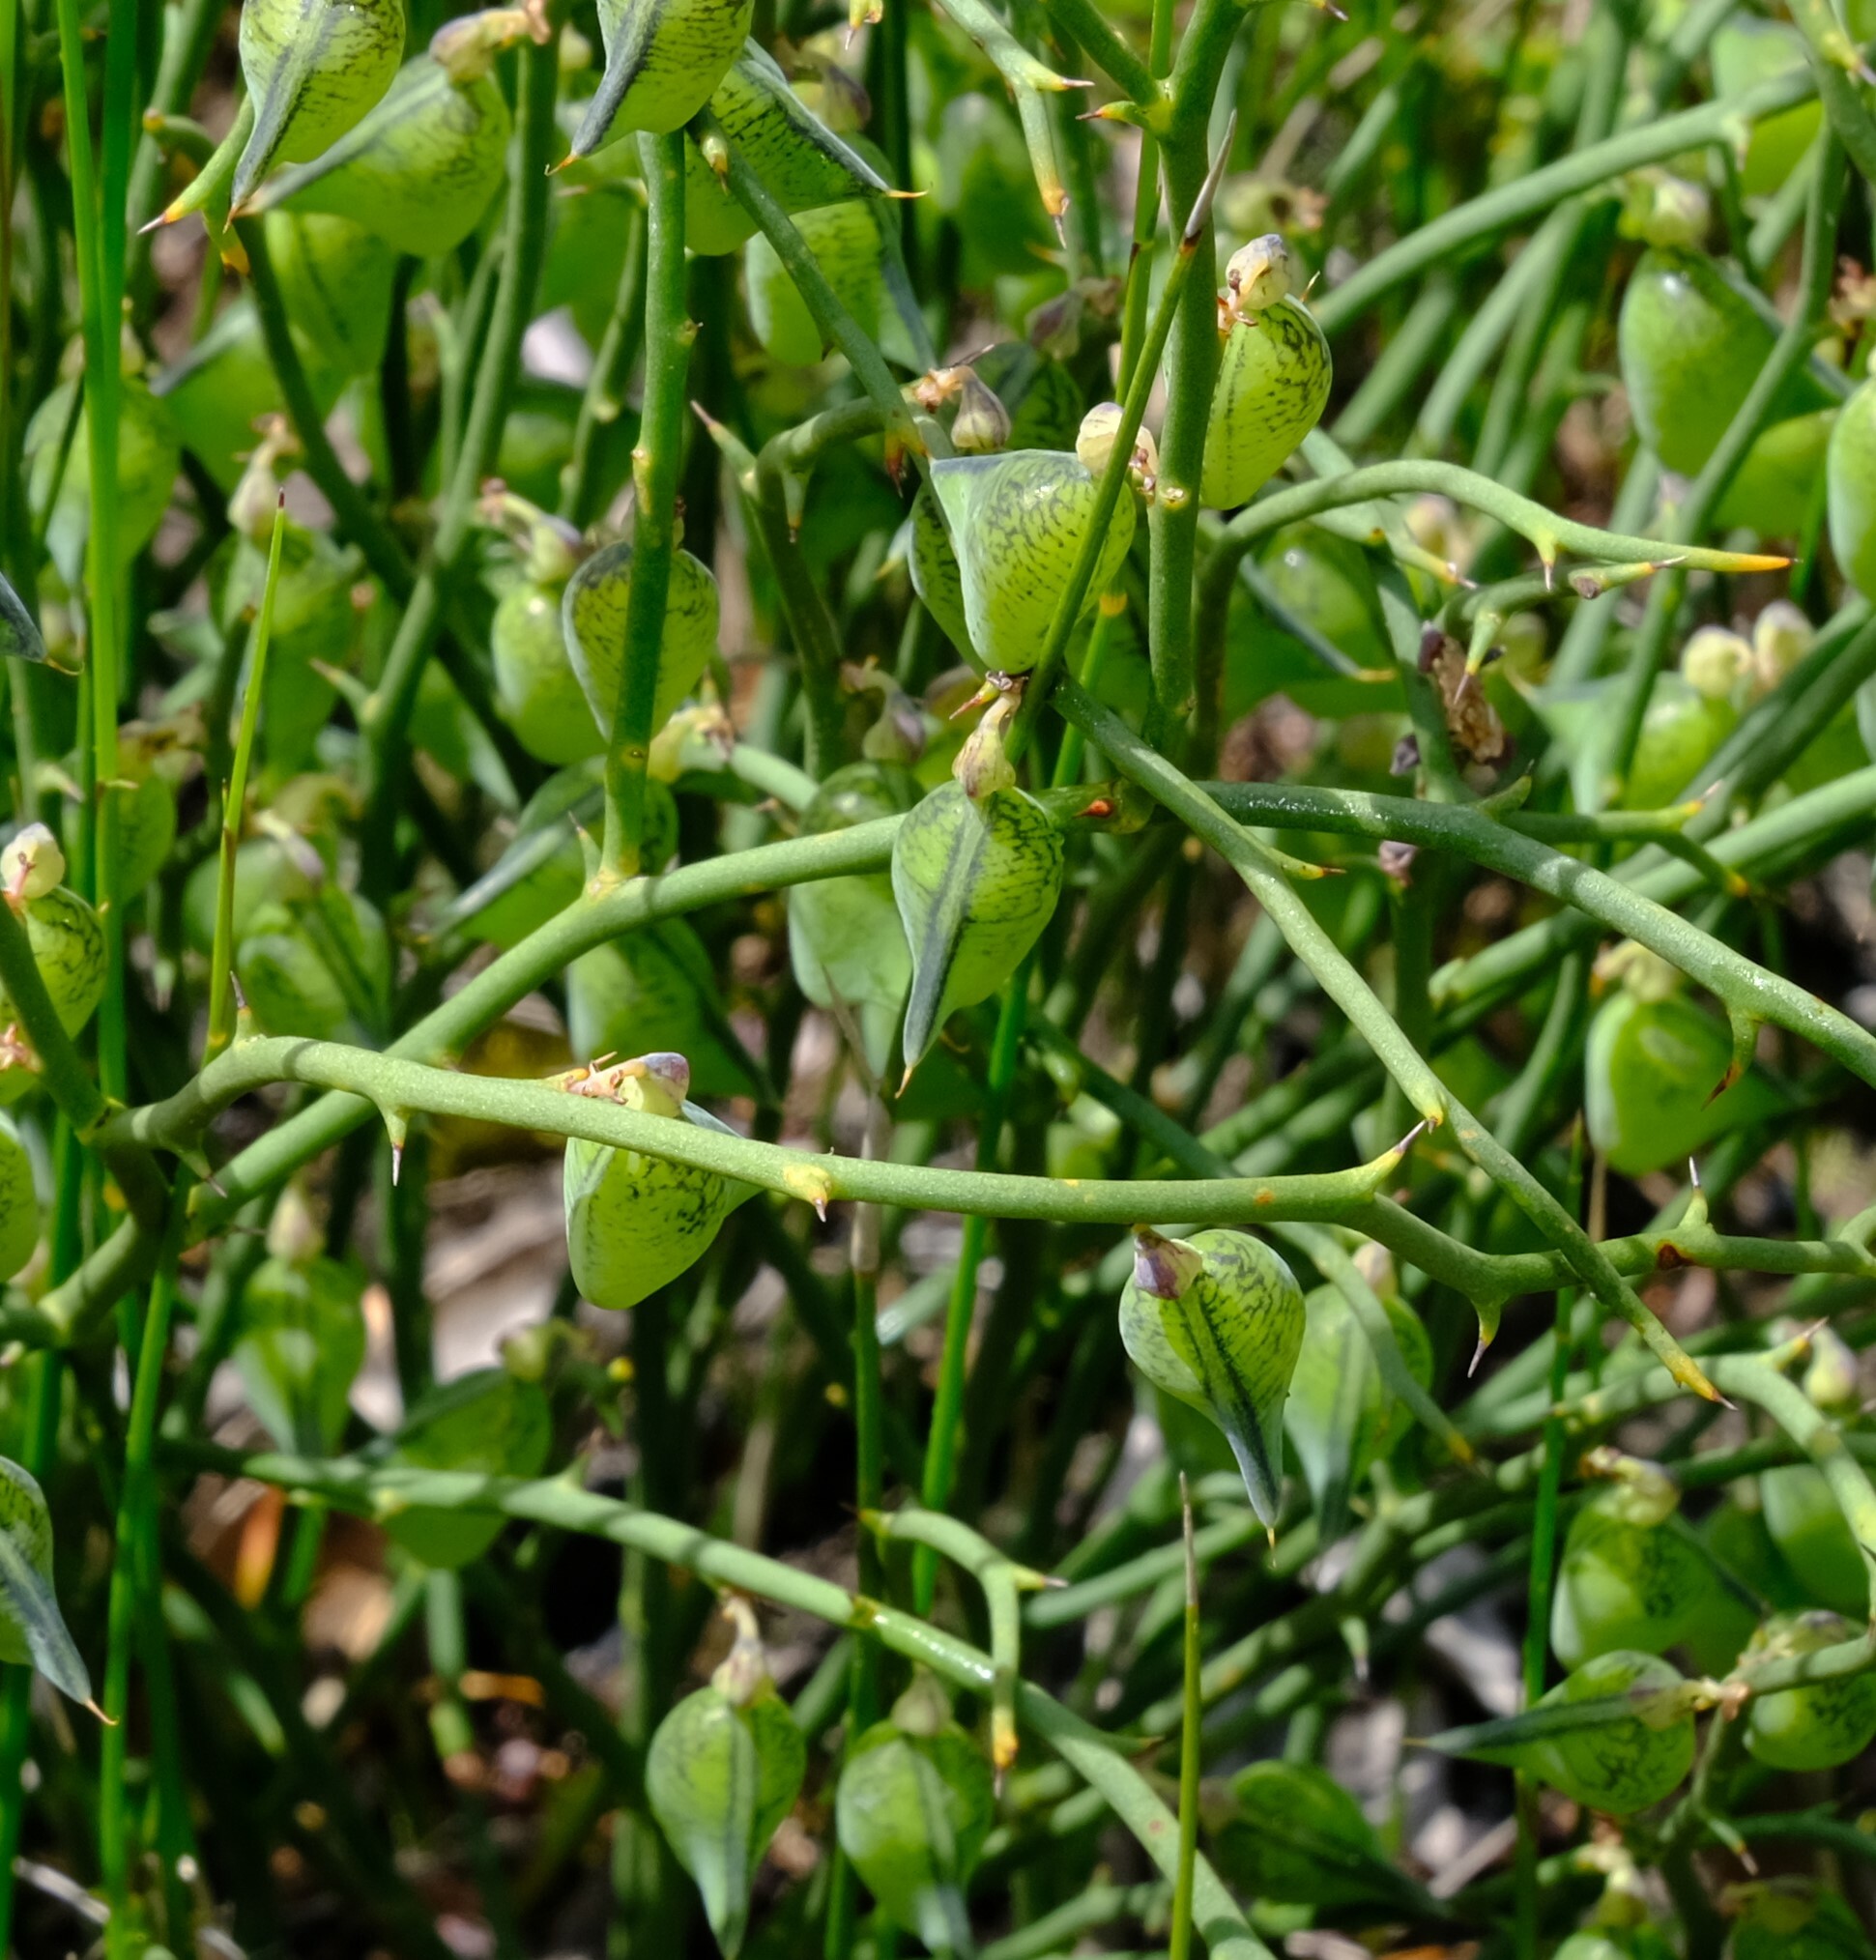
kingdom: Plantae
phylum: Tracheophyta
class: Magnoliopsida
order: Fabales
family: Fabaceae
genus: Daviesia
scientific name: Daviesia brevifolia
